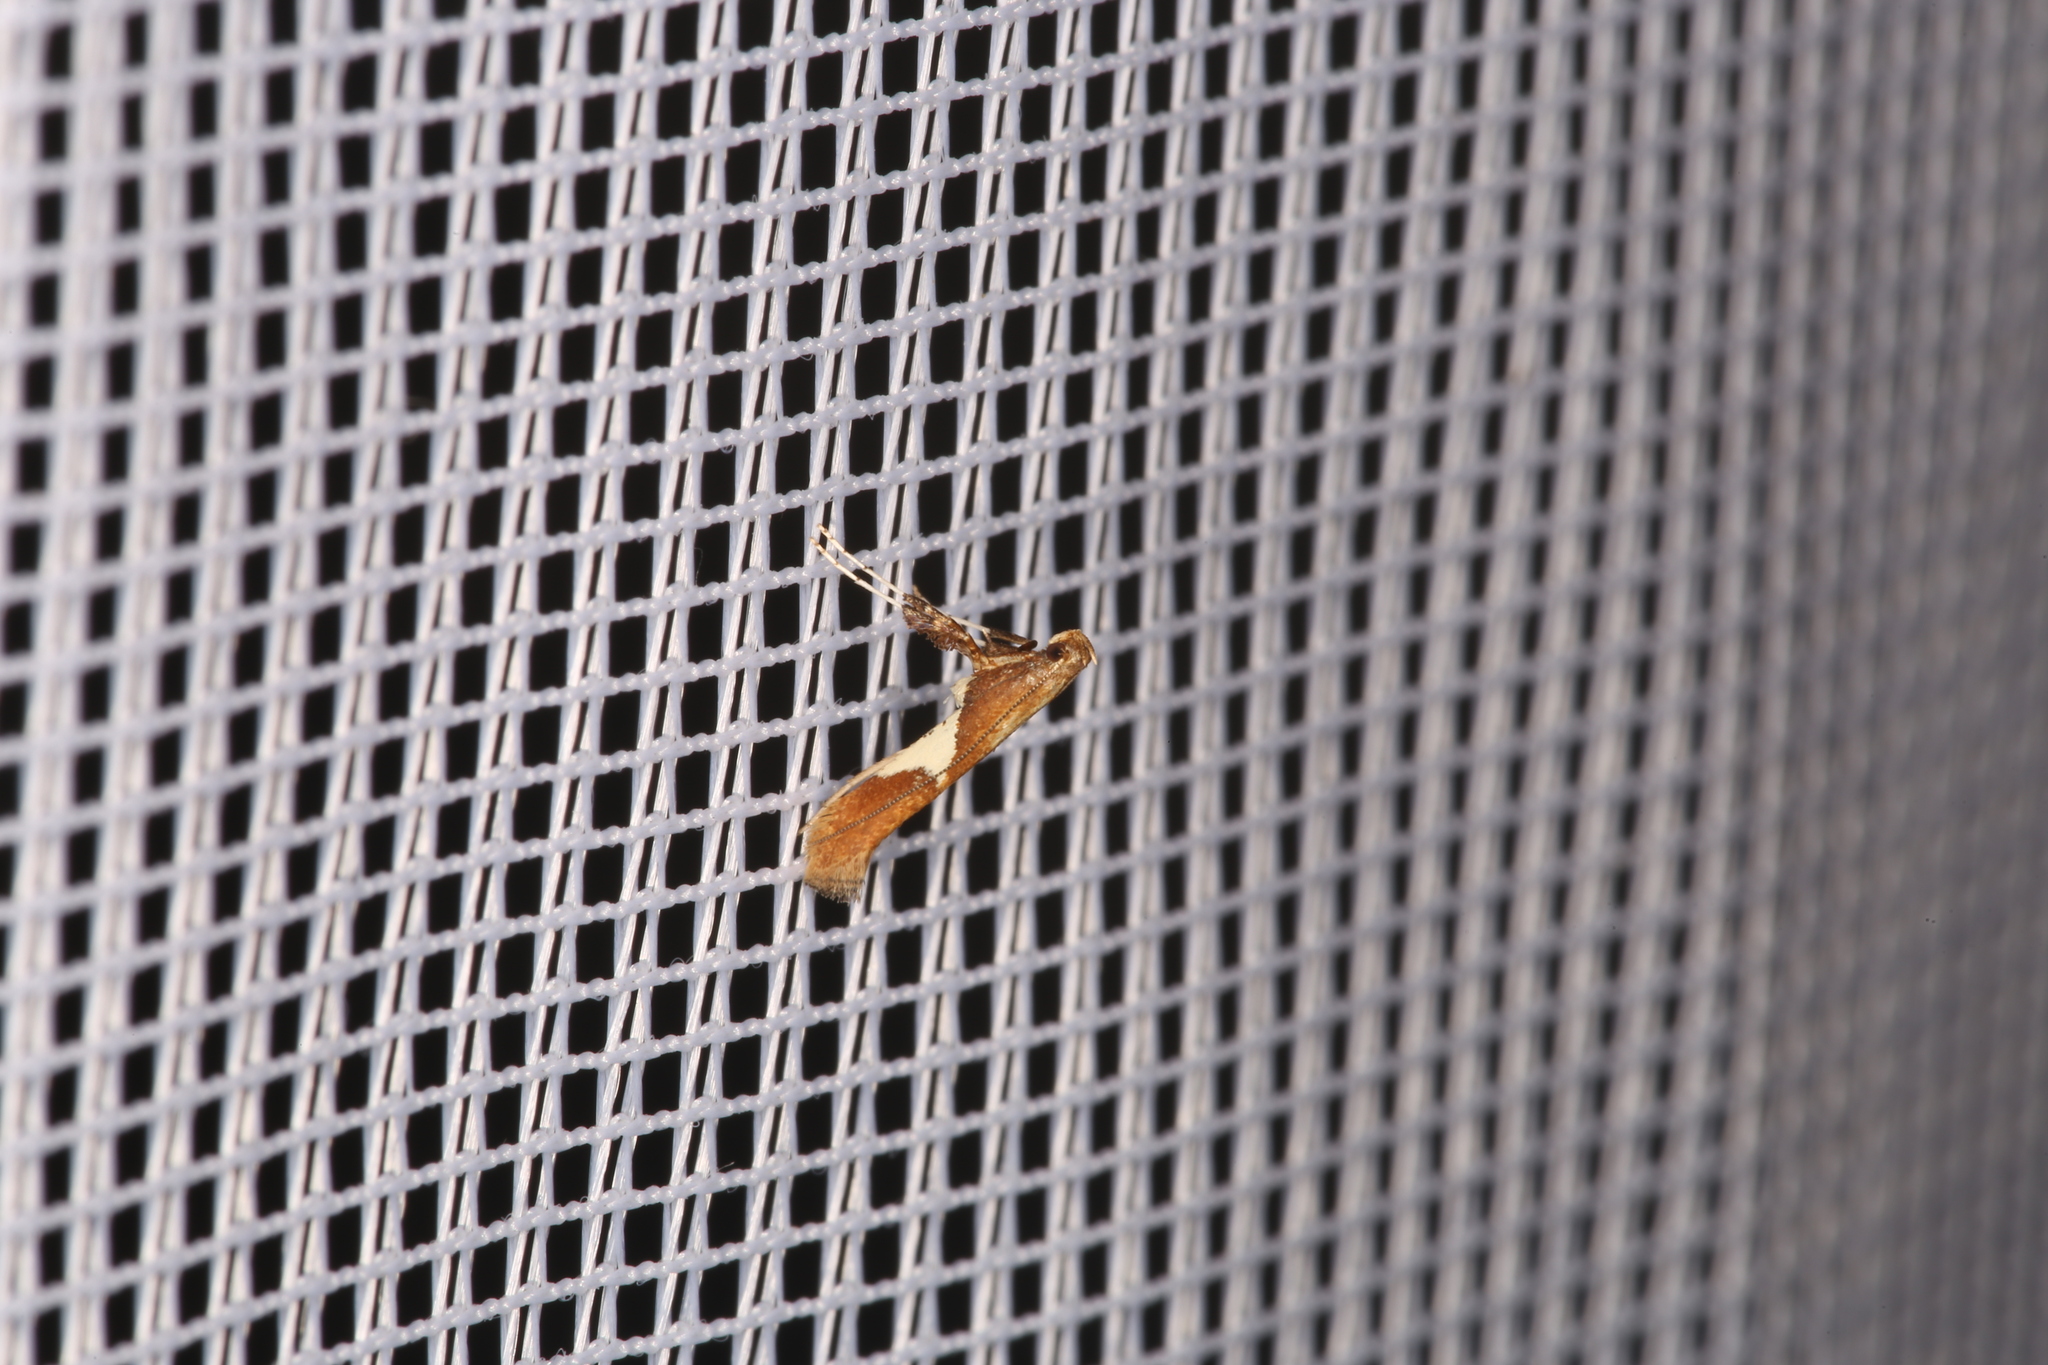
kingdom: Animalia
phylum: Arthropoda
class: Insecta
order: Lepidoptera
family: Gracillariidae
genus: Caloptilia
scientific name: Caloptilia stigmatella
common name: White-triangle slender
